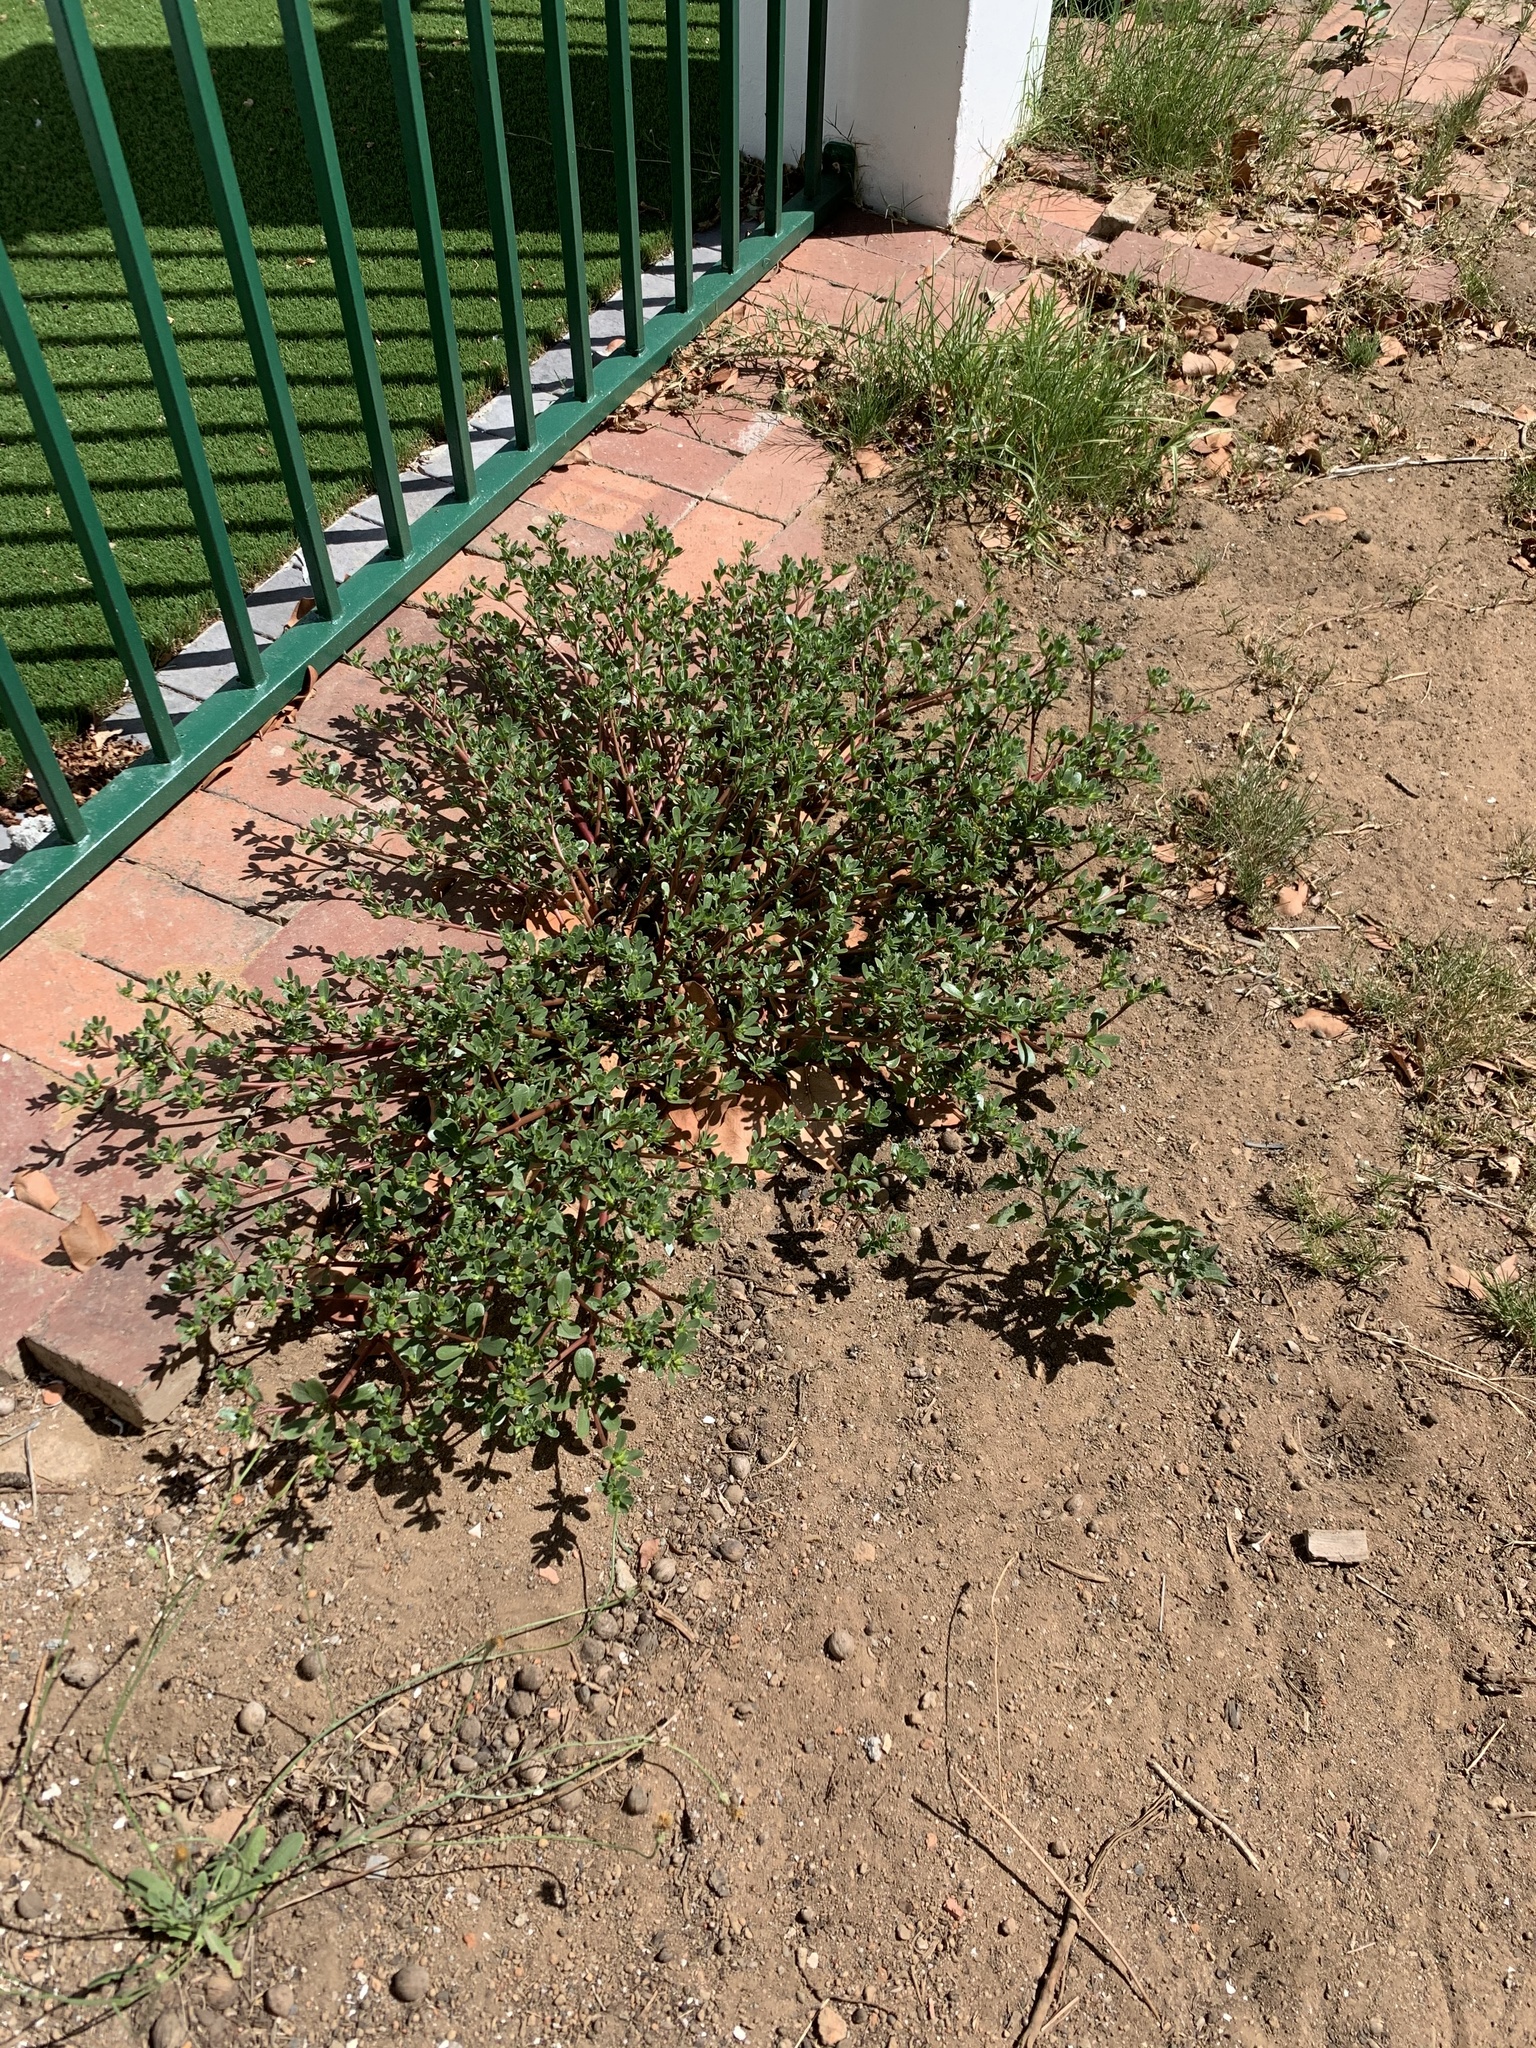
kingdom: Plantae
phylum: Tracheophyta
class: Magnoliopsida
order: Caryophyllales
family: Portulacaceae
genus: Portulaca
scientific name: Portulaca oleracea
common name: Common purslane
